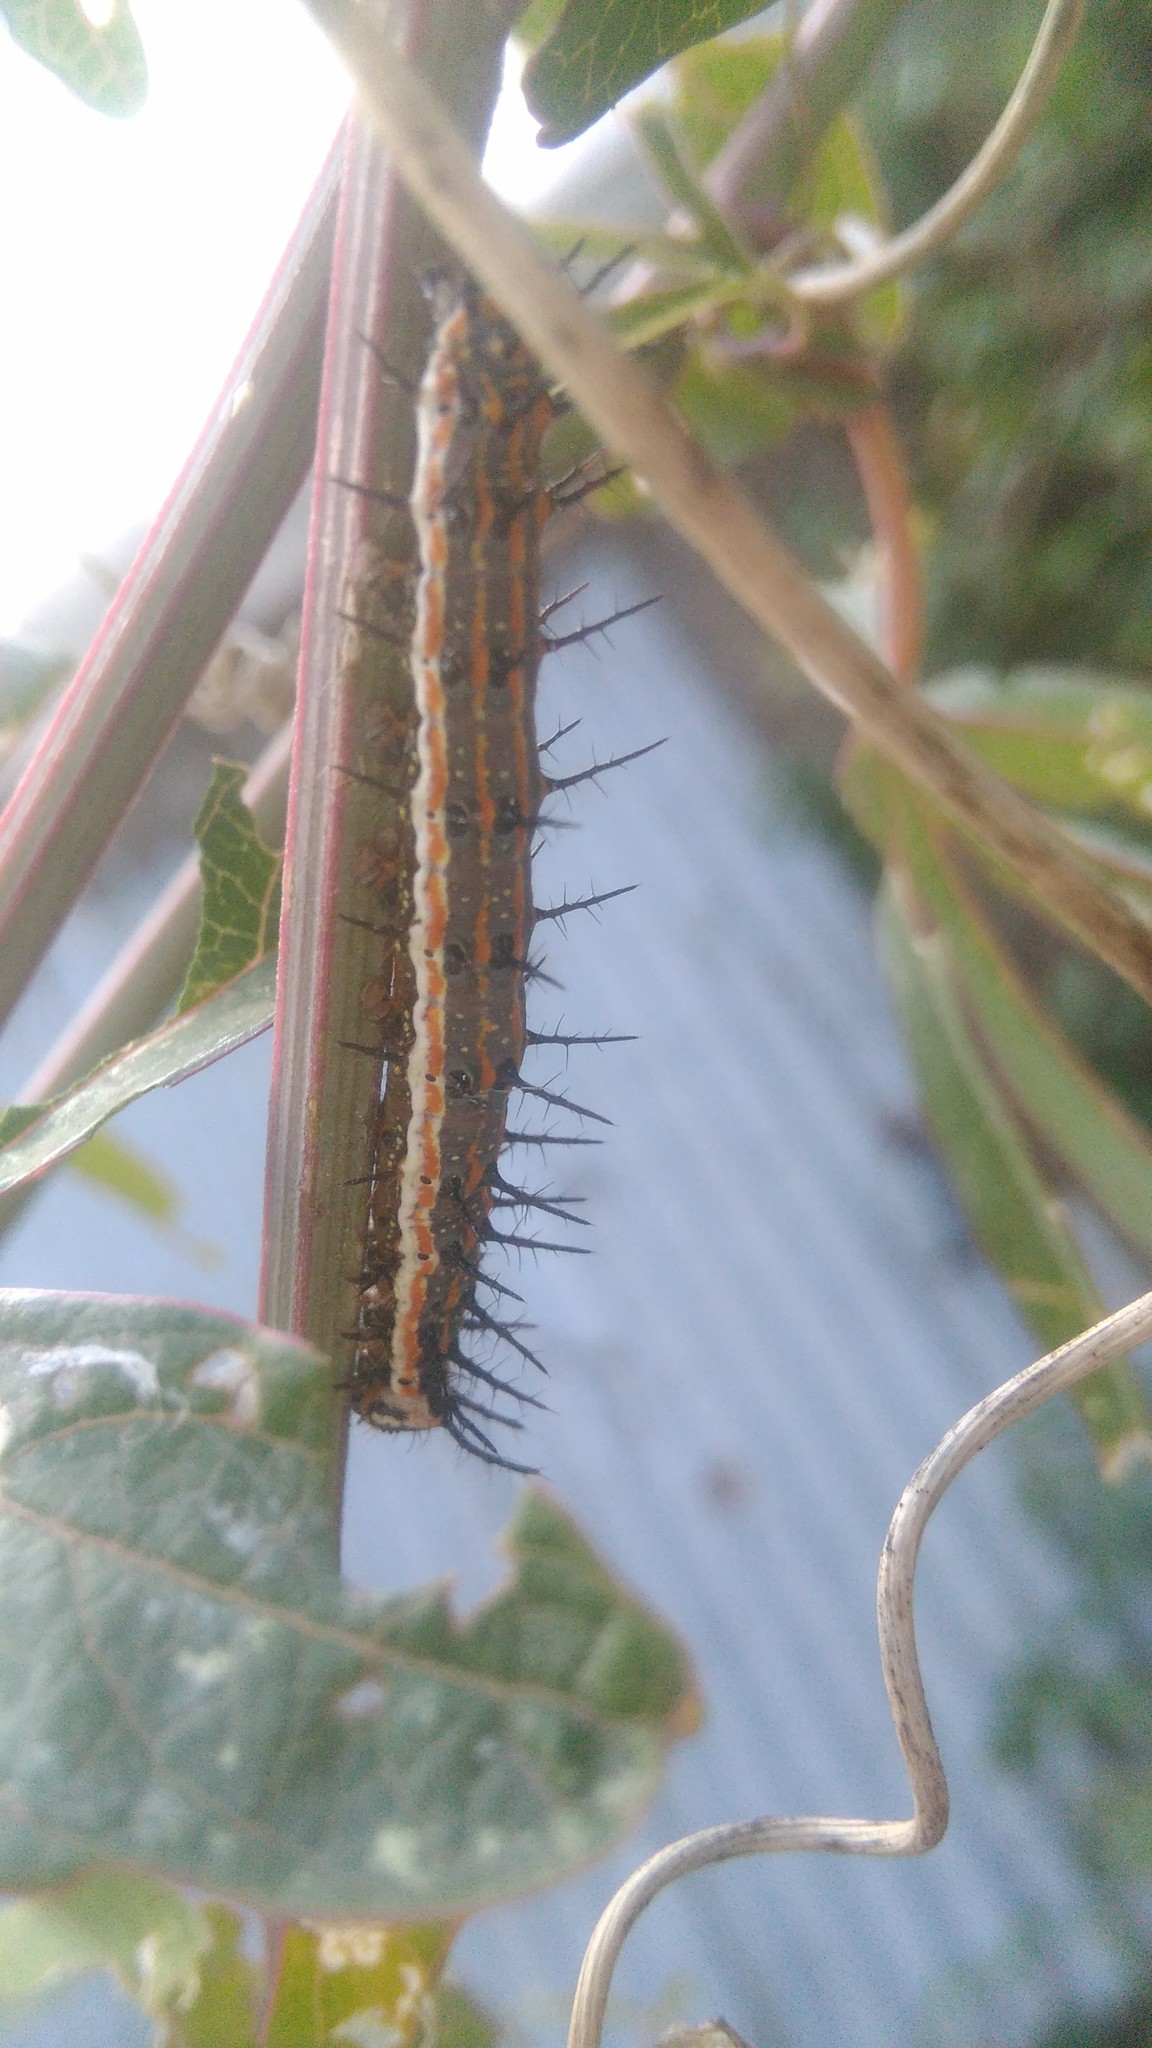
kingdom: Animalia
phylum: Arthropoda
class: Insecta
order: Lepidoptera
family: Nymphalidae
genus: Dione
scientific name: Dione vanillae
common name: Gulf fritillary
